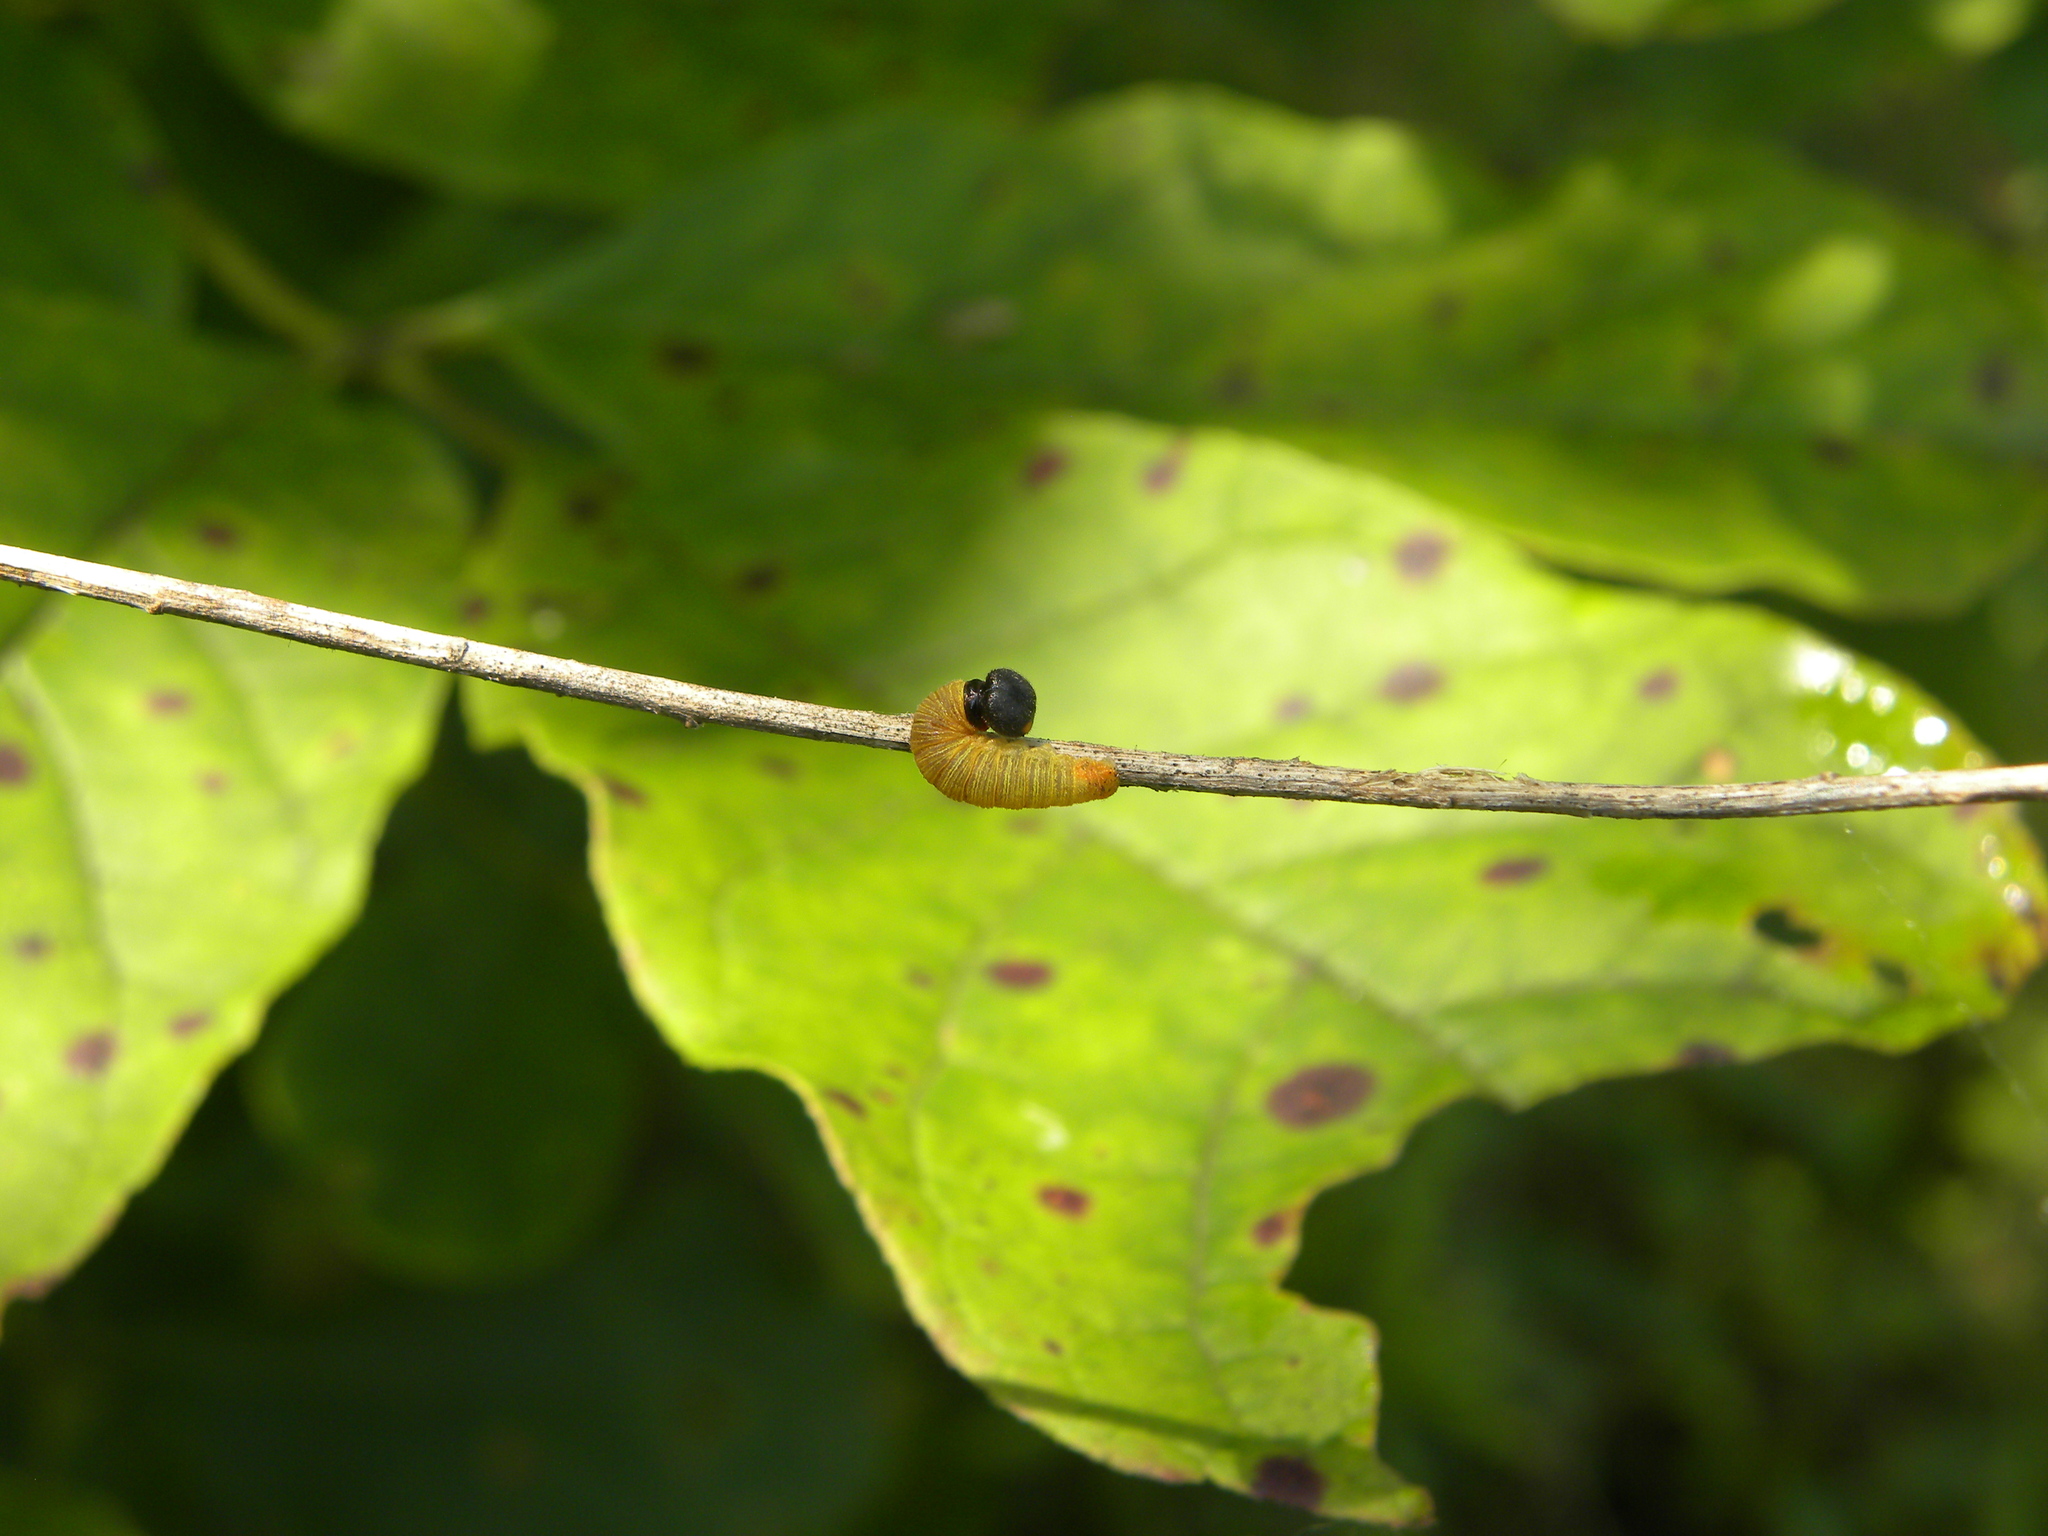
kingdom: Animalia
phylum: Arthropoda
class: Insecta
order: Lepidoptera
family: Hesperiidae
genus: Epargyreus
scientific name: Epargyreus clarus
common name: Silver-spotted skipper
